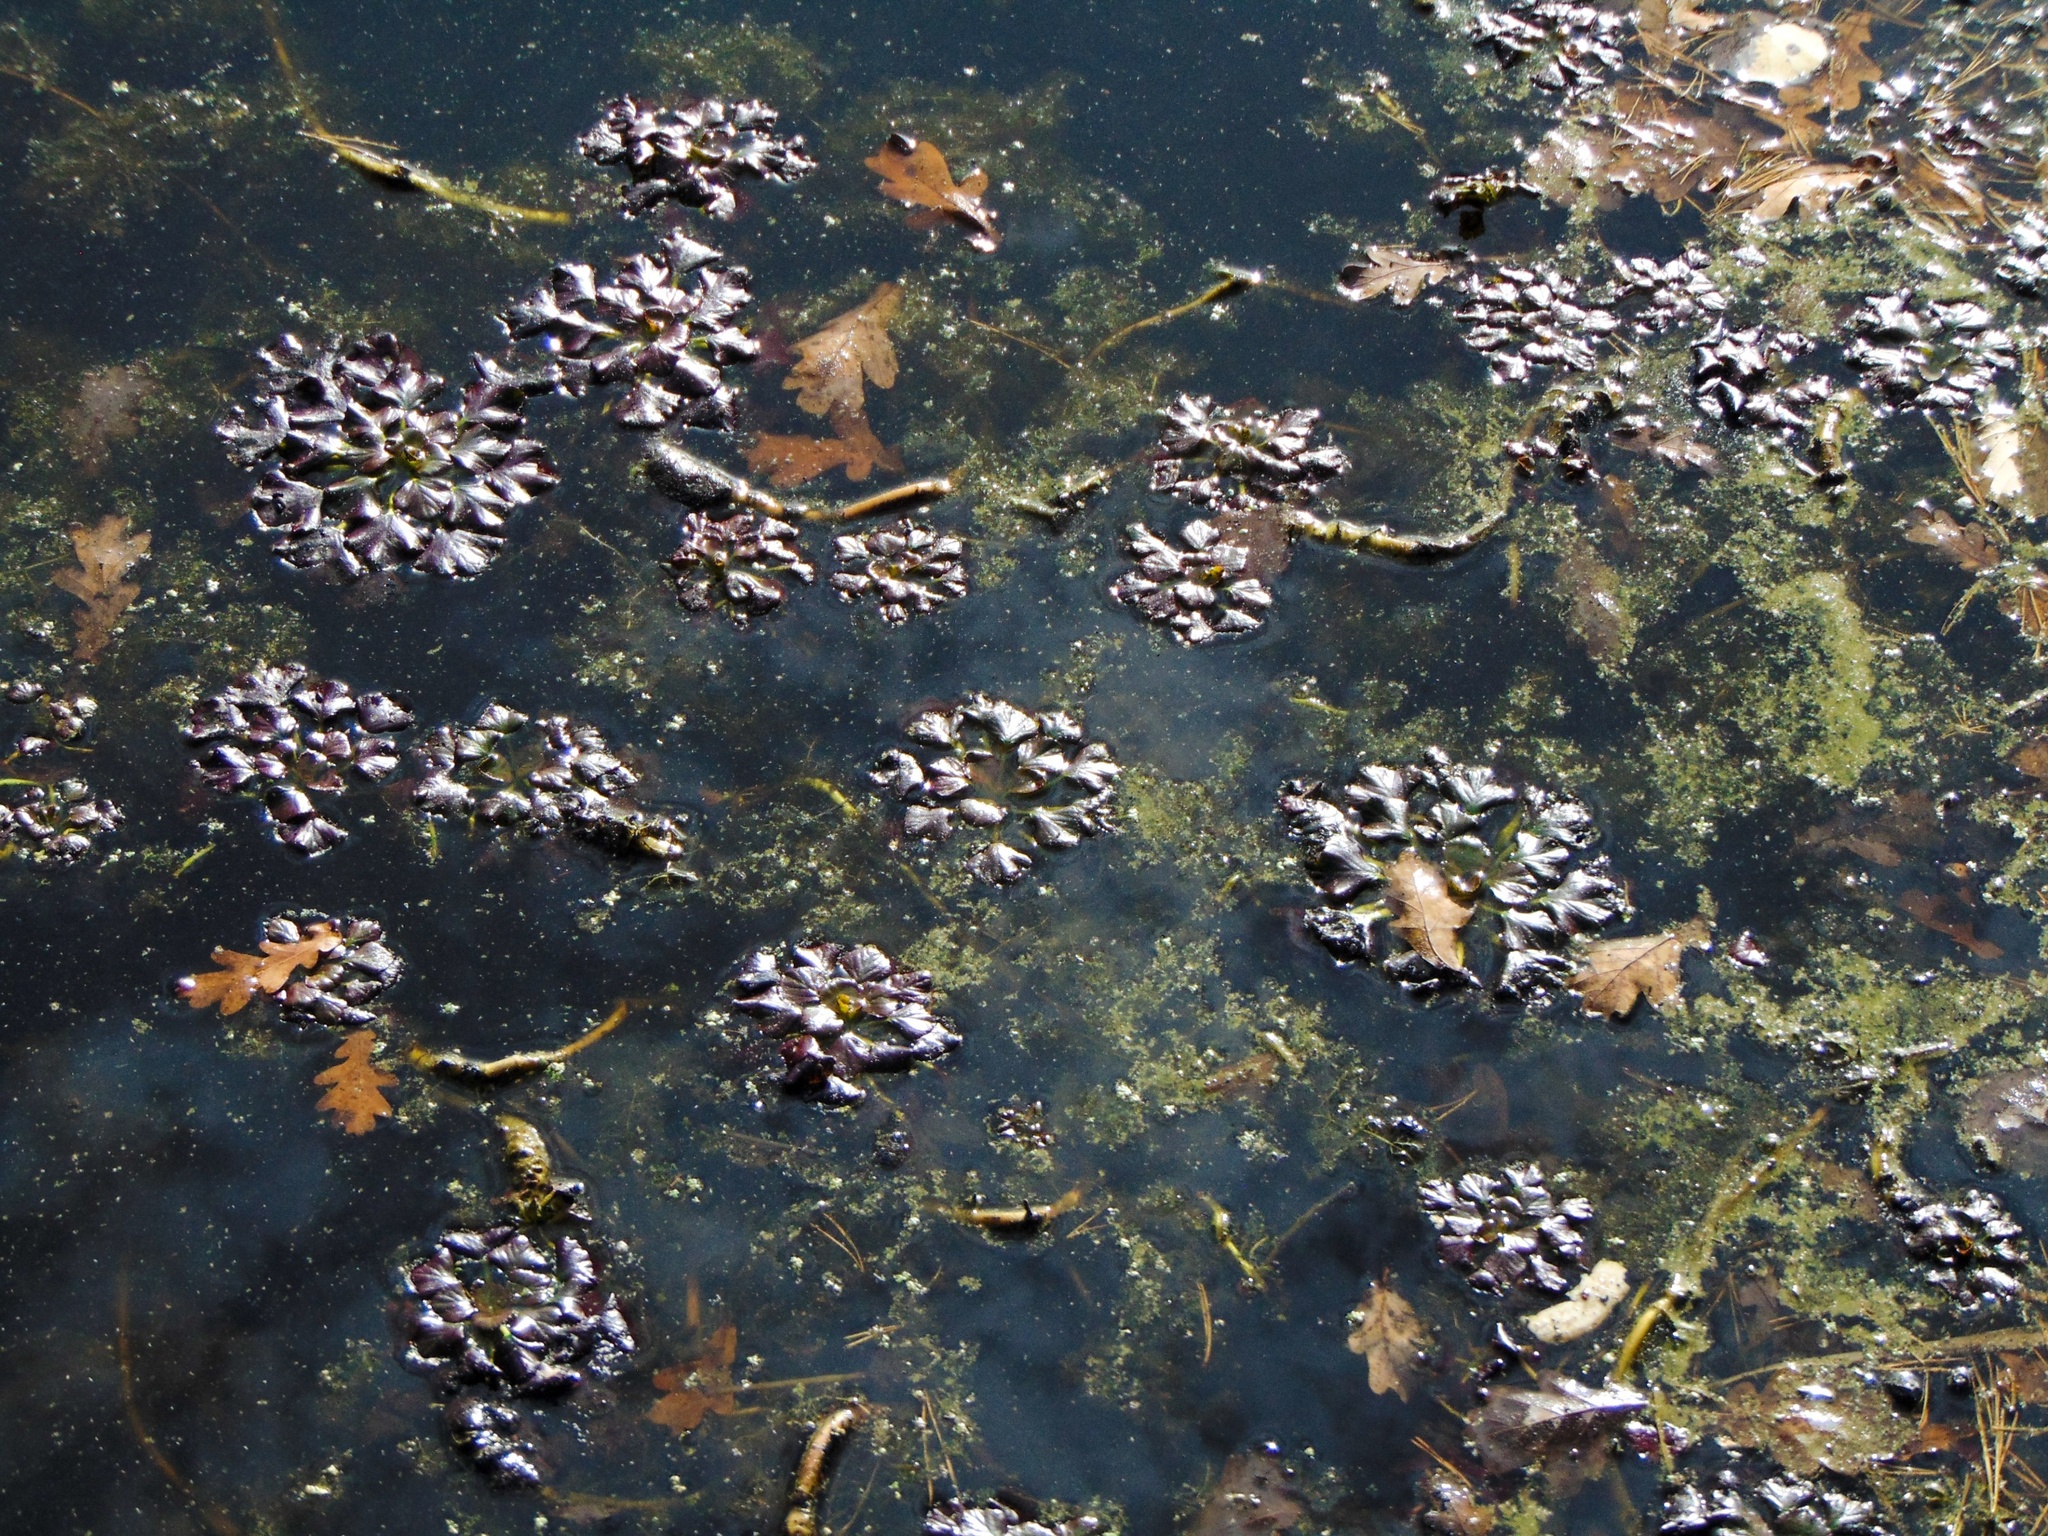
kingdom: Plantae
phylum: Tracheophyta
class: Magnoliopsida
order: Myrtales
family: Lythraceae
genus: Trapa
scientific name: Trapa natans
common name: Water chestnut
